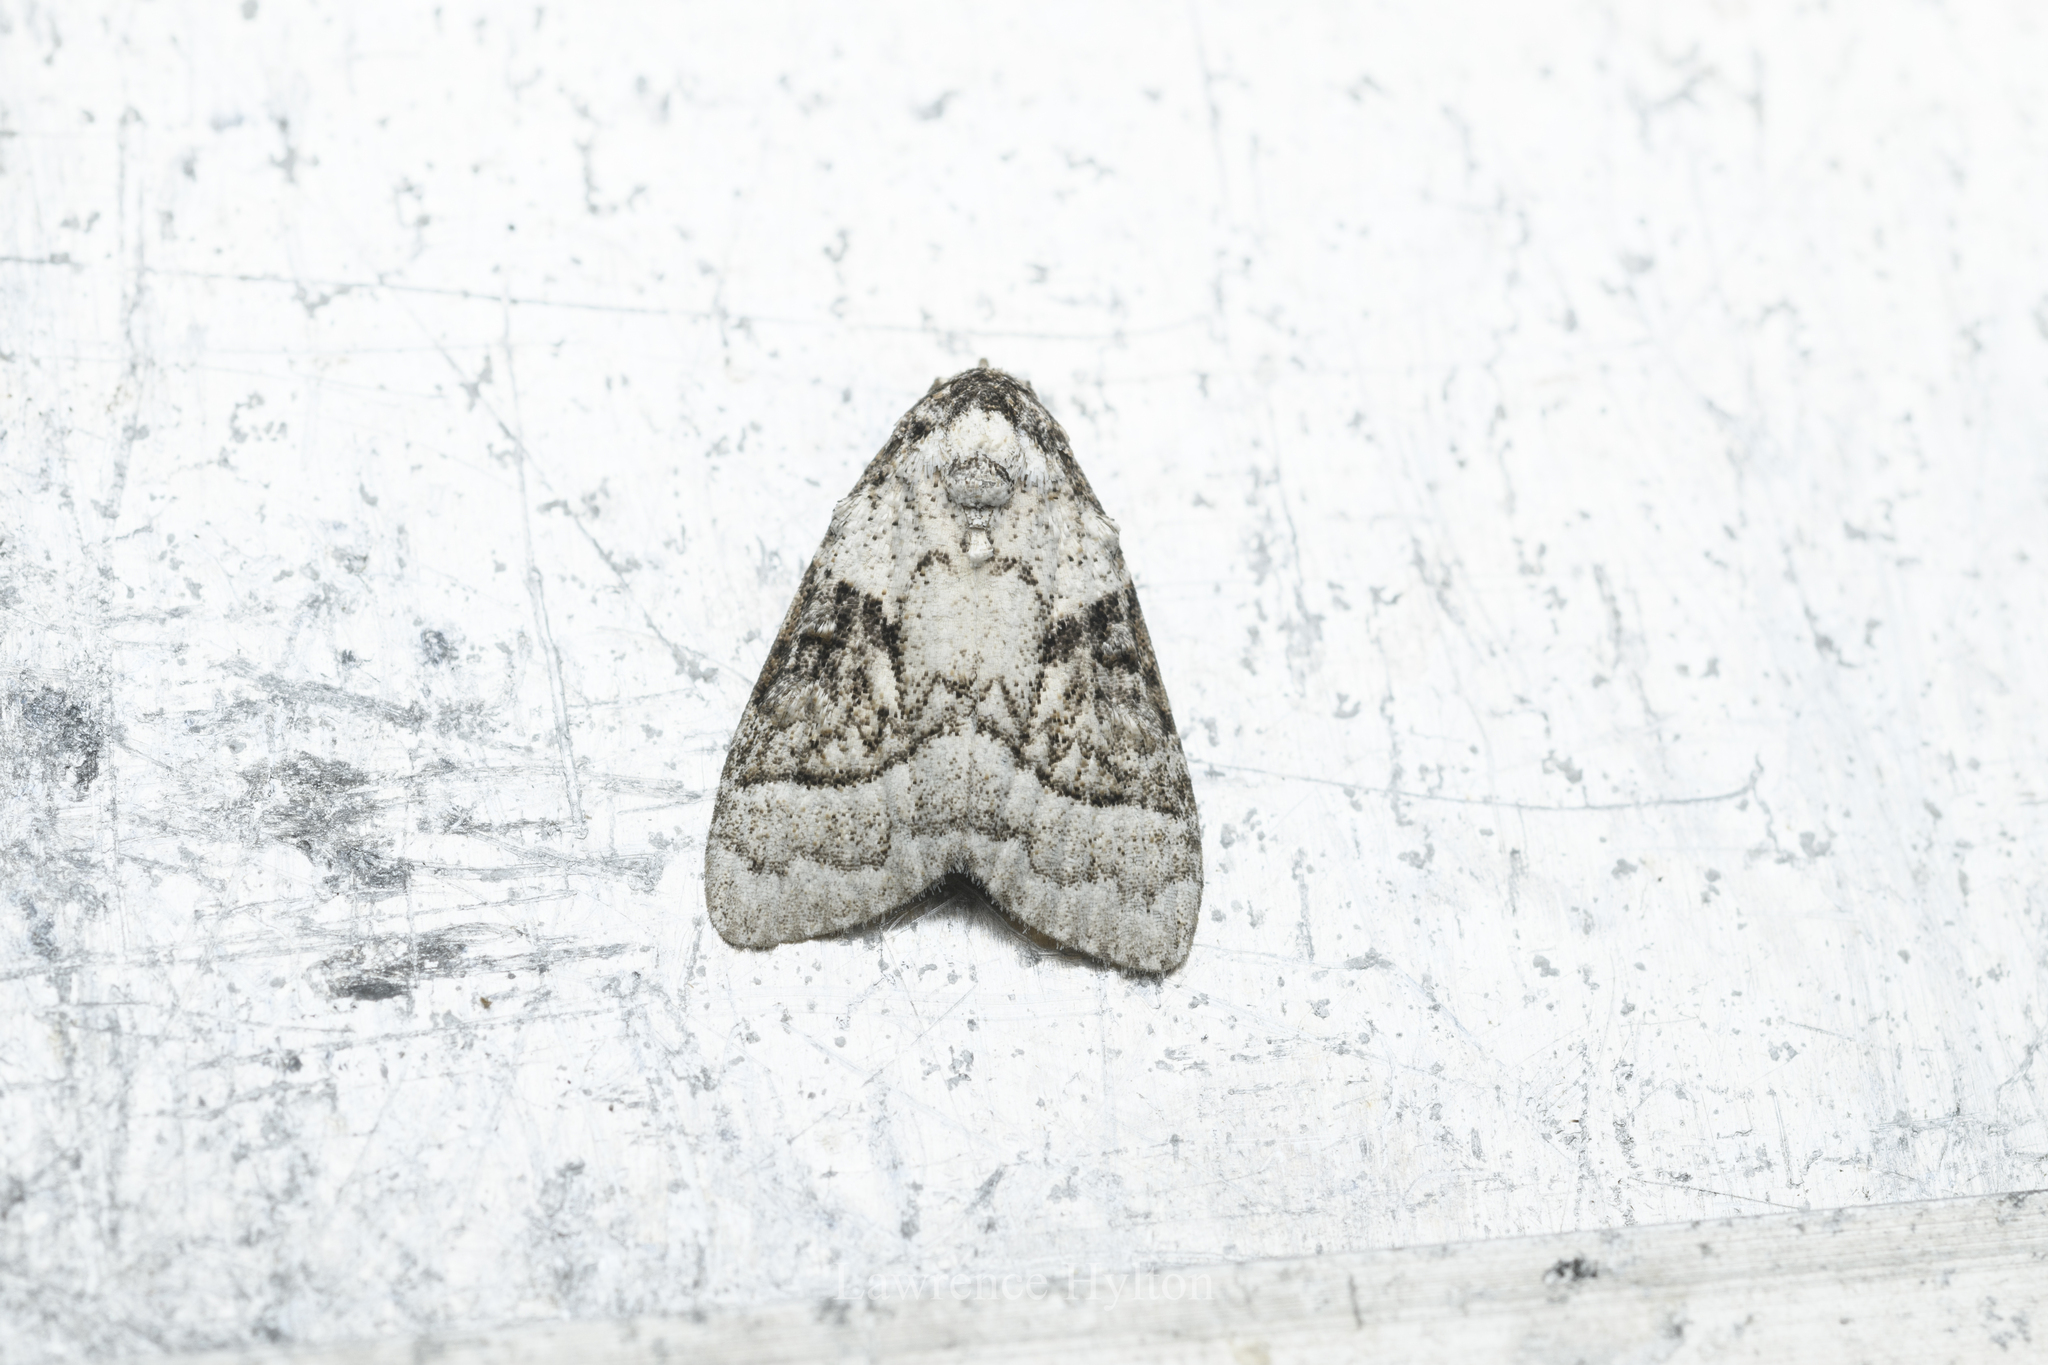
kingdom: Animalia
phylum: Arthropoda
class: Insecta
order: Lepidoptera
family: Nolidae
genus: Meganola
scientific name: Meganola triangulalis
